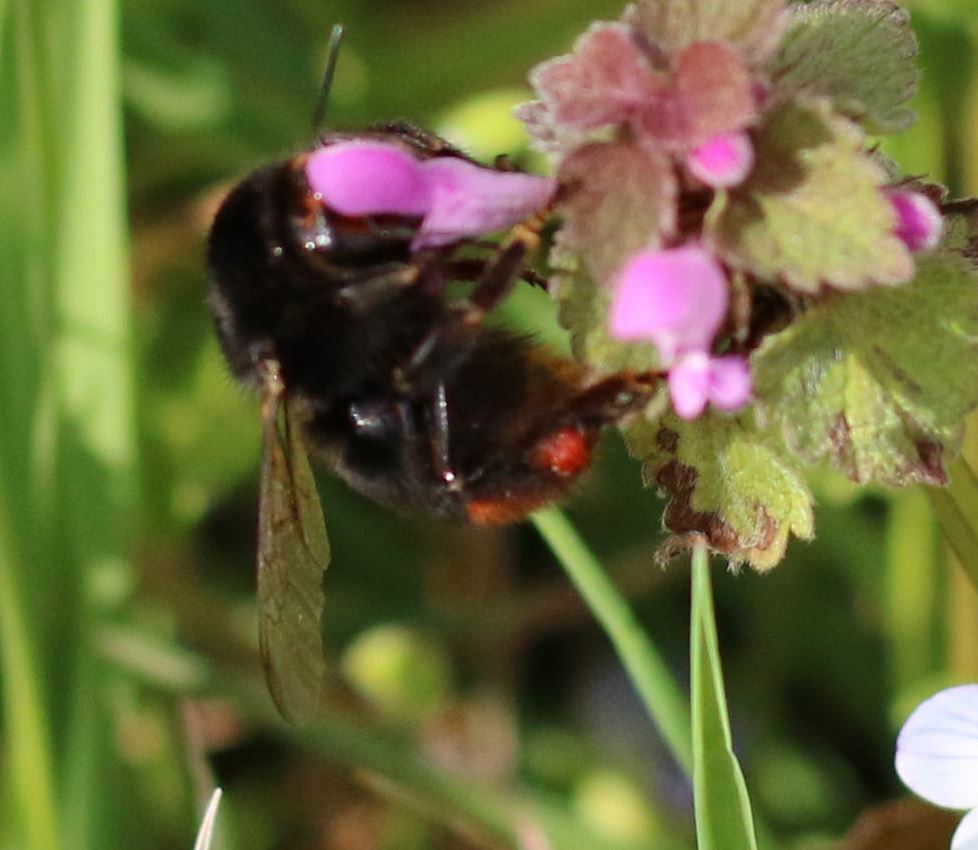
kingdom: Animalia
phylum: Arthropoda
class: Insecta
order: Hymenoptera
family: Apidae
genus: Bombus
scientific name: Bombus lapidarius
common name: Large red-tailed humble-bee
